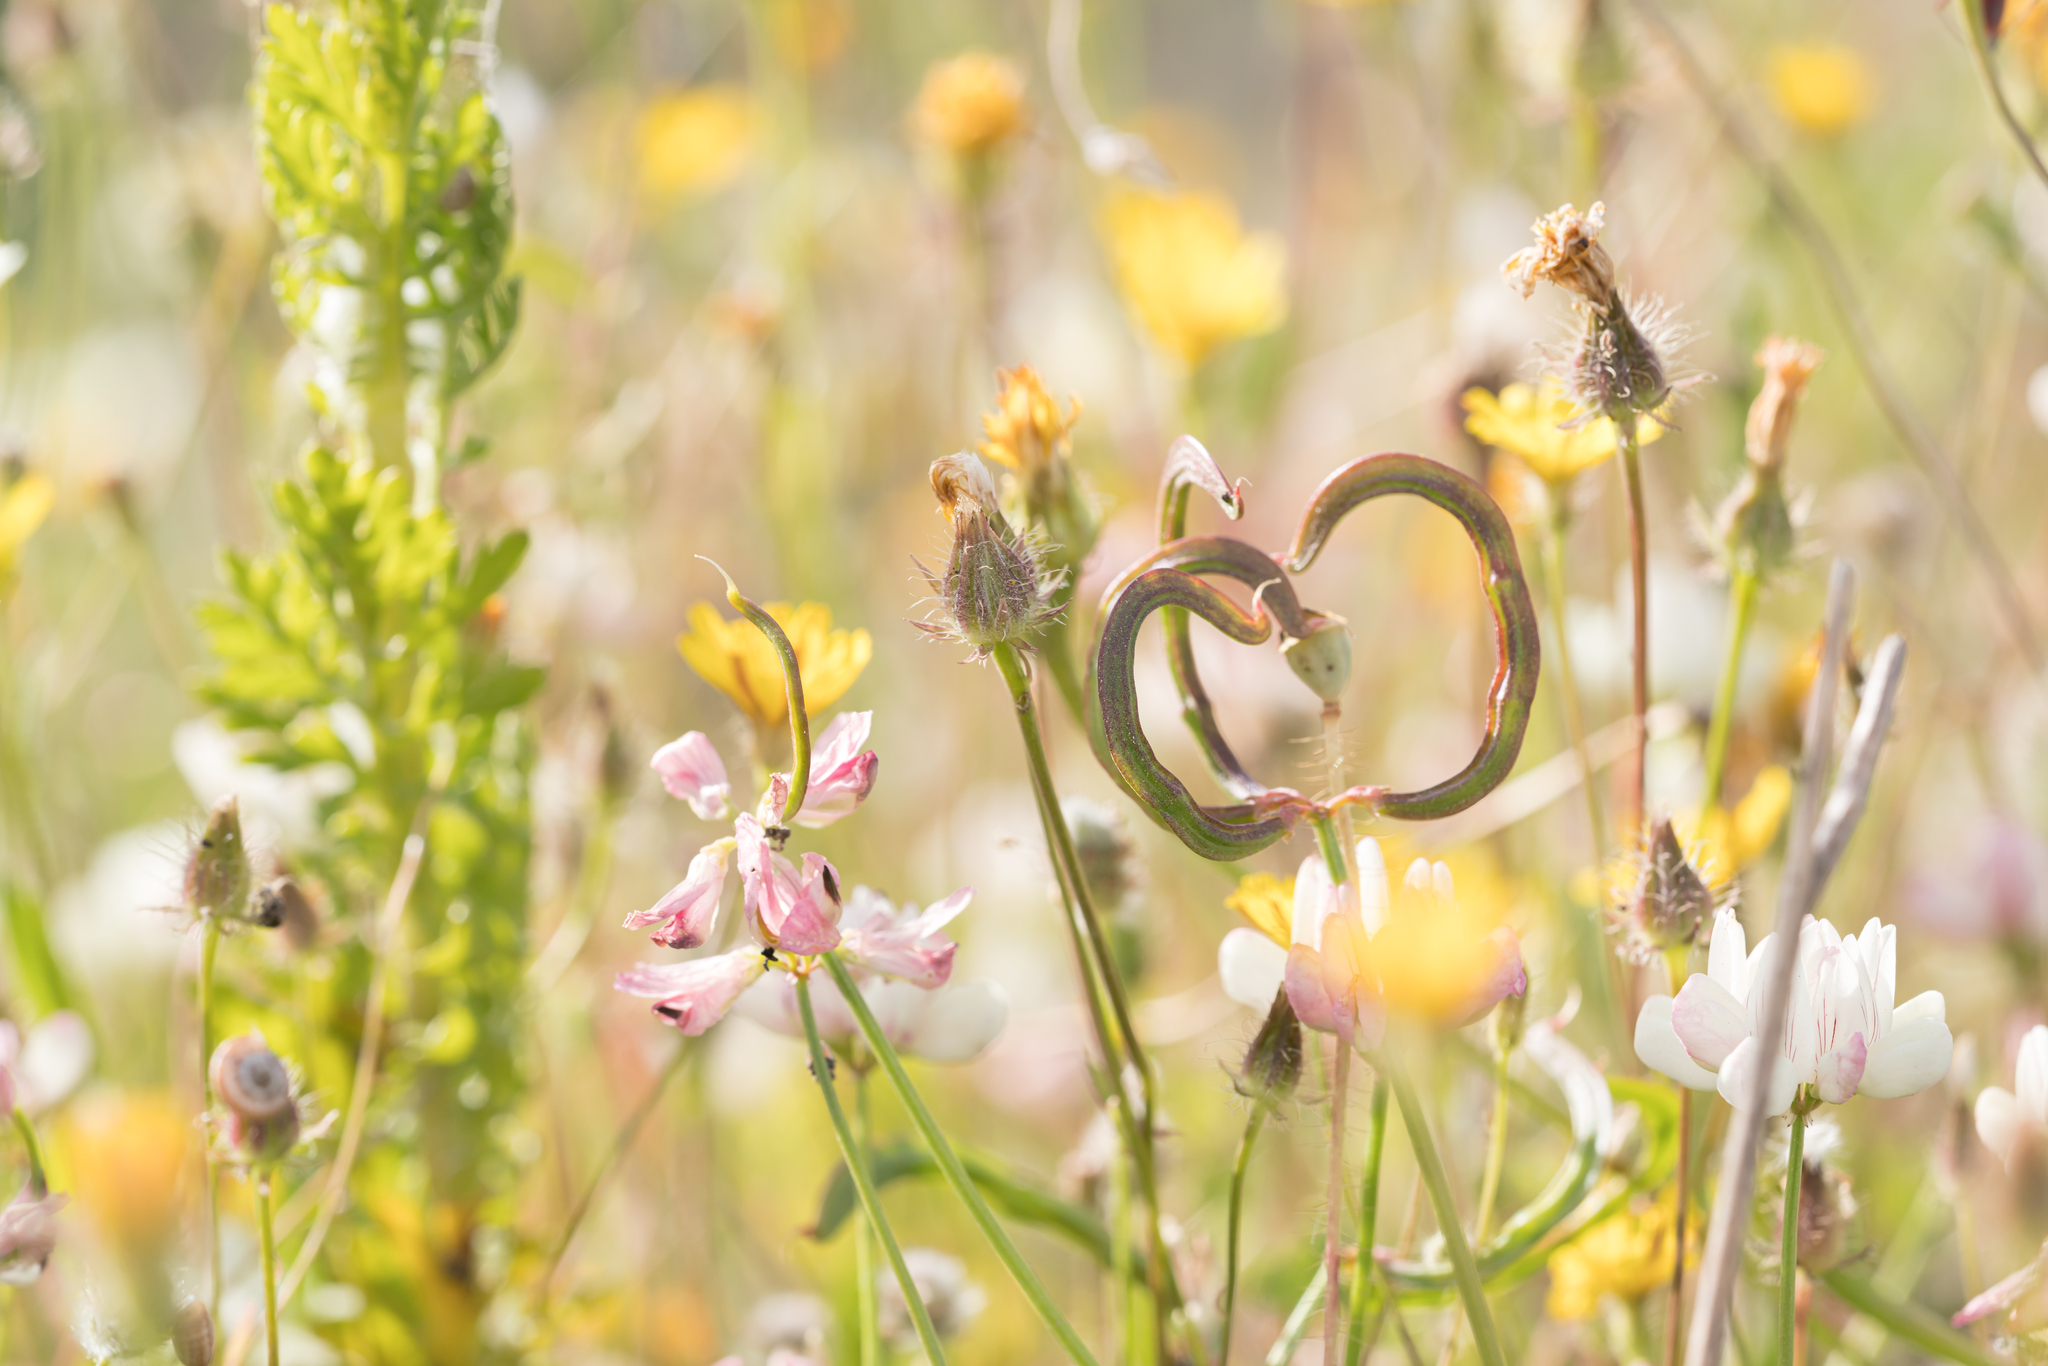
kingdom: Plantae
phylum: Tracheophyta
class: Magnoliopsida
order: Fabales
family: Fabaceae
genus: Coronilla
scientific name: Coronilla carinata
